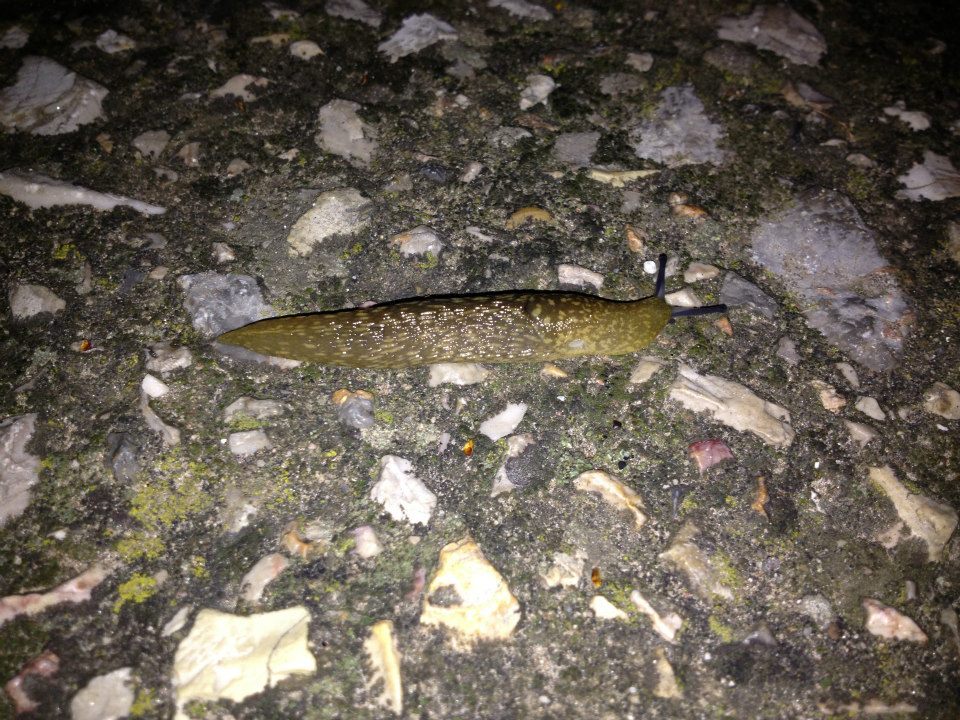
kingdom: Animalia
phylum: Mollusca
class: Gastropoda
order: Stylommatophora
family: Limacidae
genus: Limacus
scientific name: Limacus flavus
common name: Yellow gardenslug
